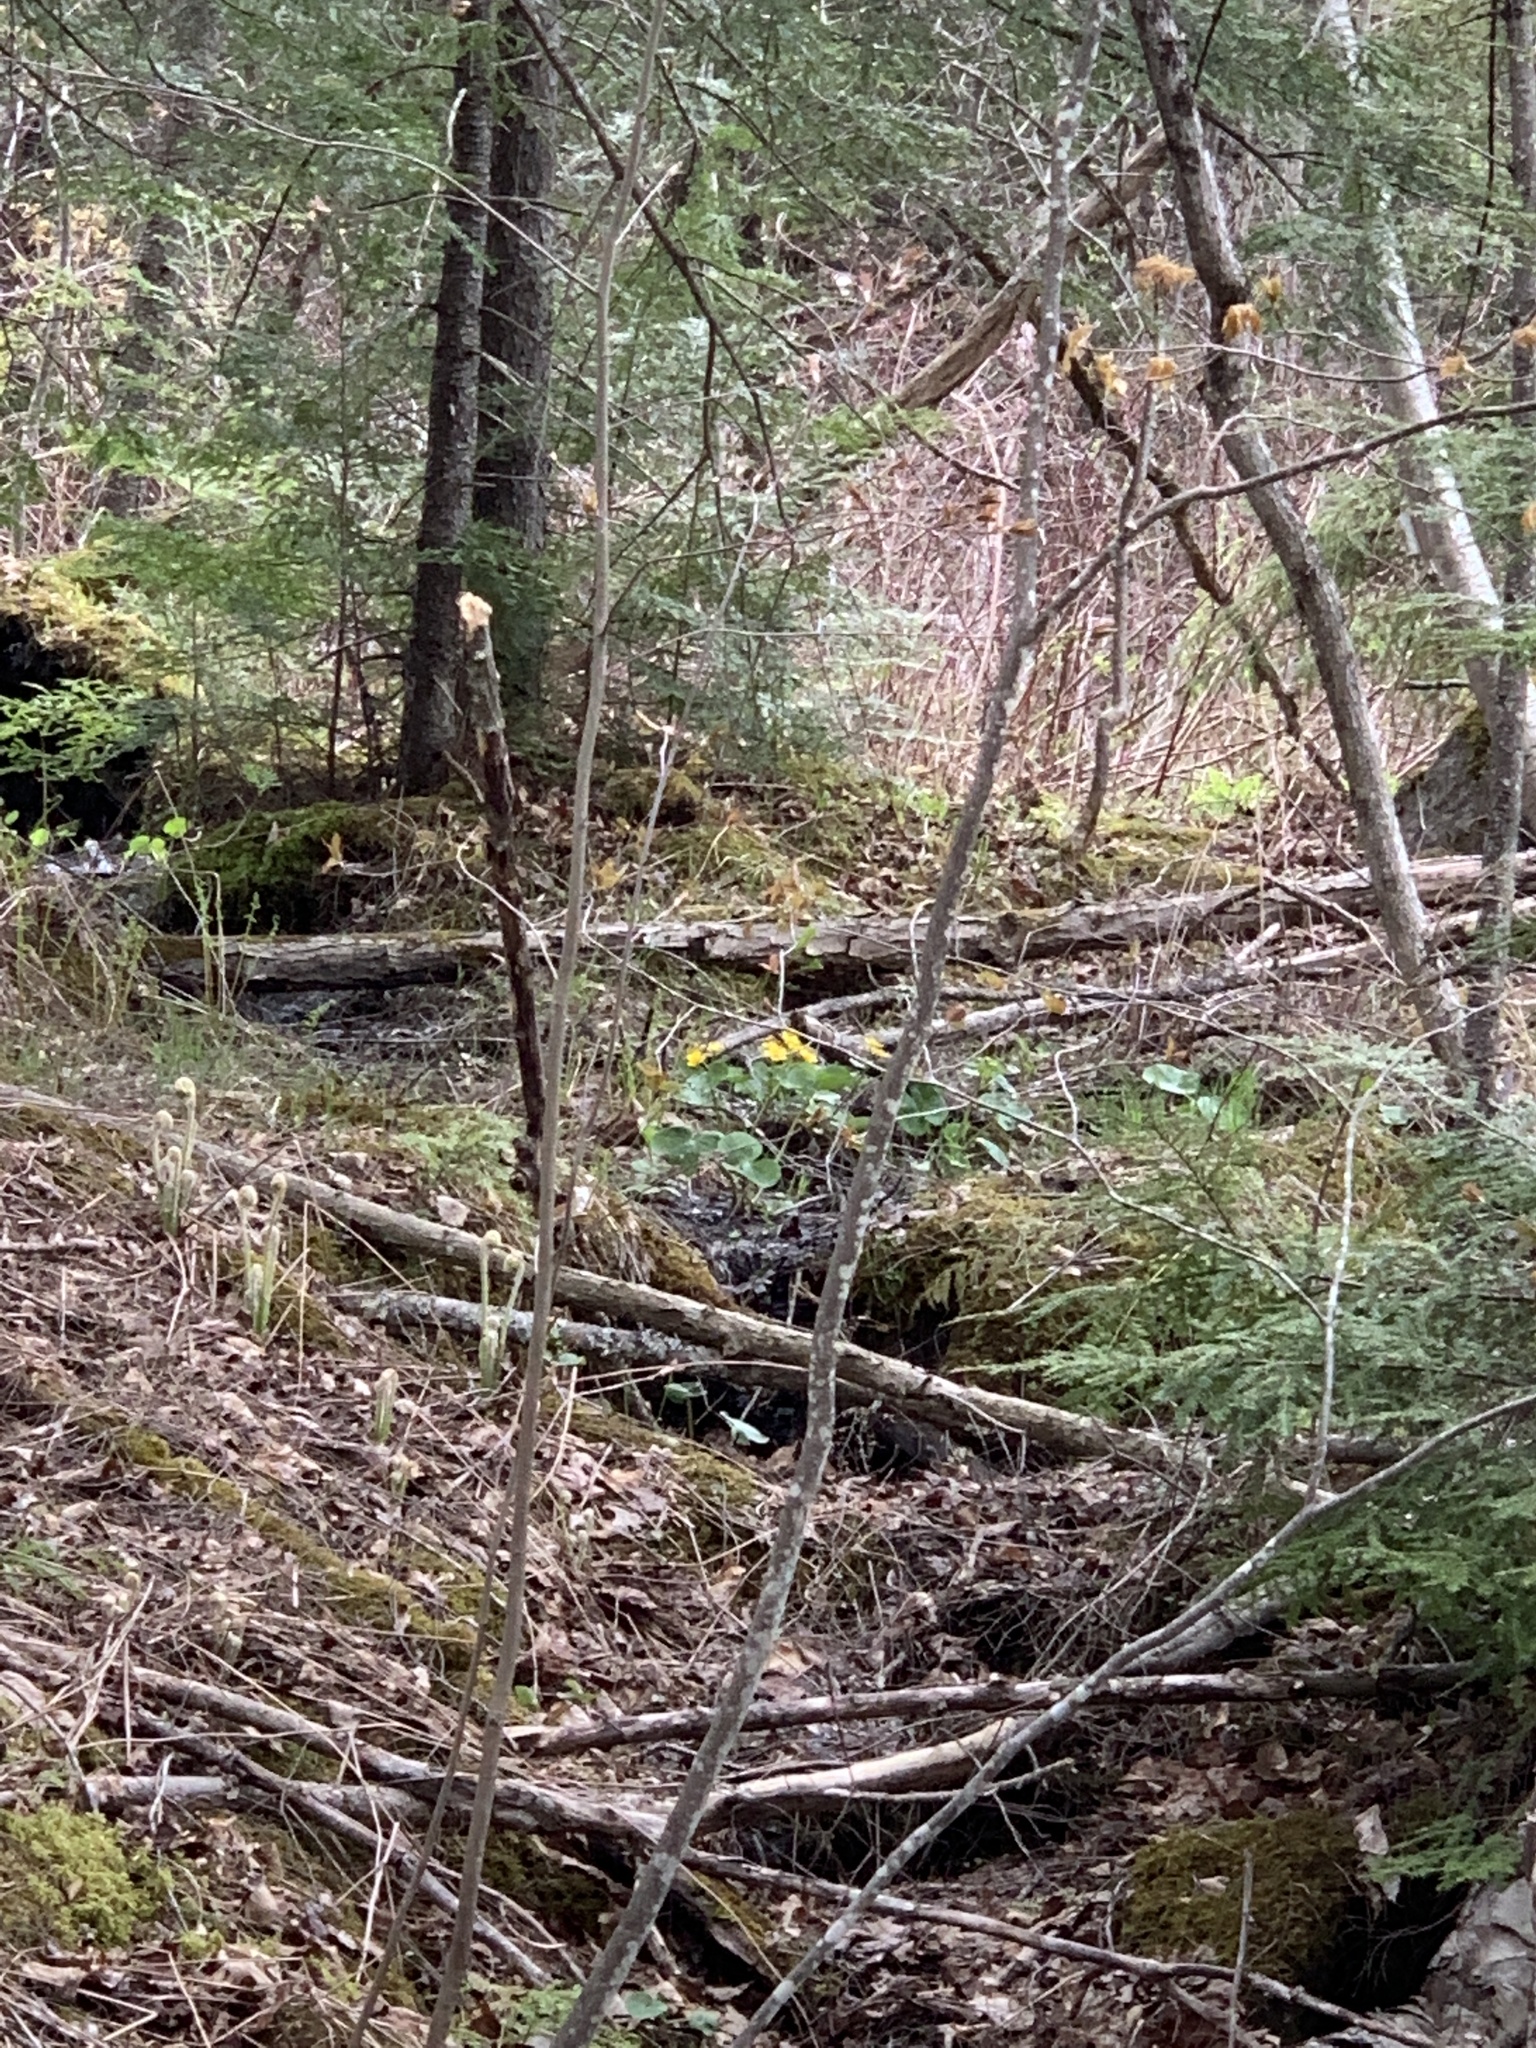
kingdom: Plantae
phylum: Tracheophyta
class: Magnoliopsida
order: Ranunculales
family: Ranunculaceae
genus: Caltha
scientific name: Caltha palustris
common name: Marsh marigold
